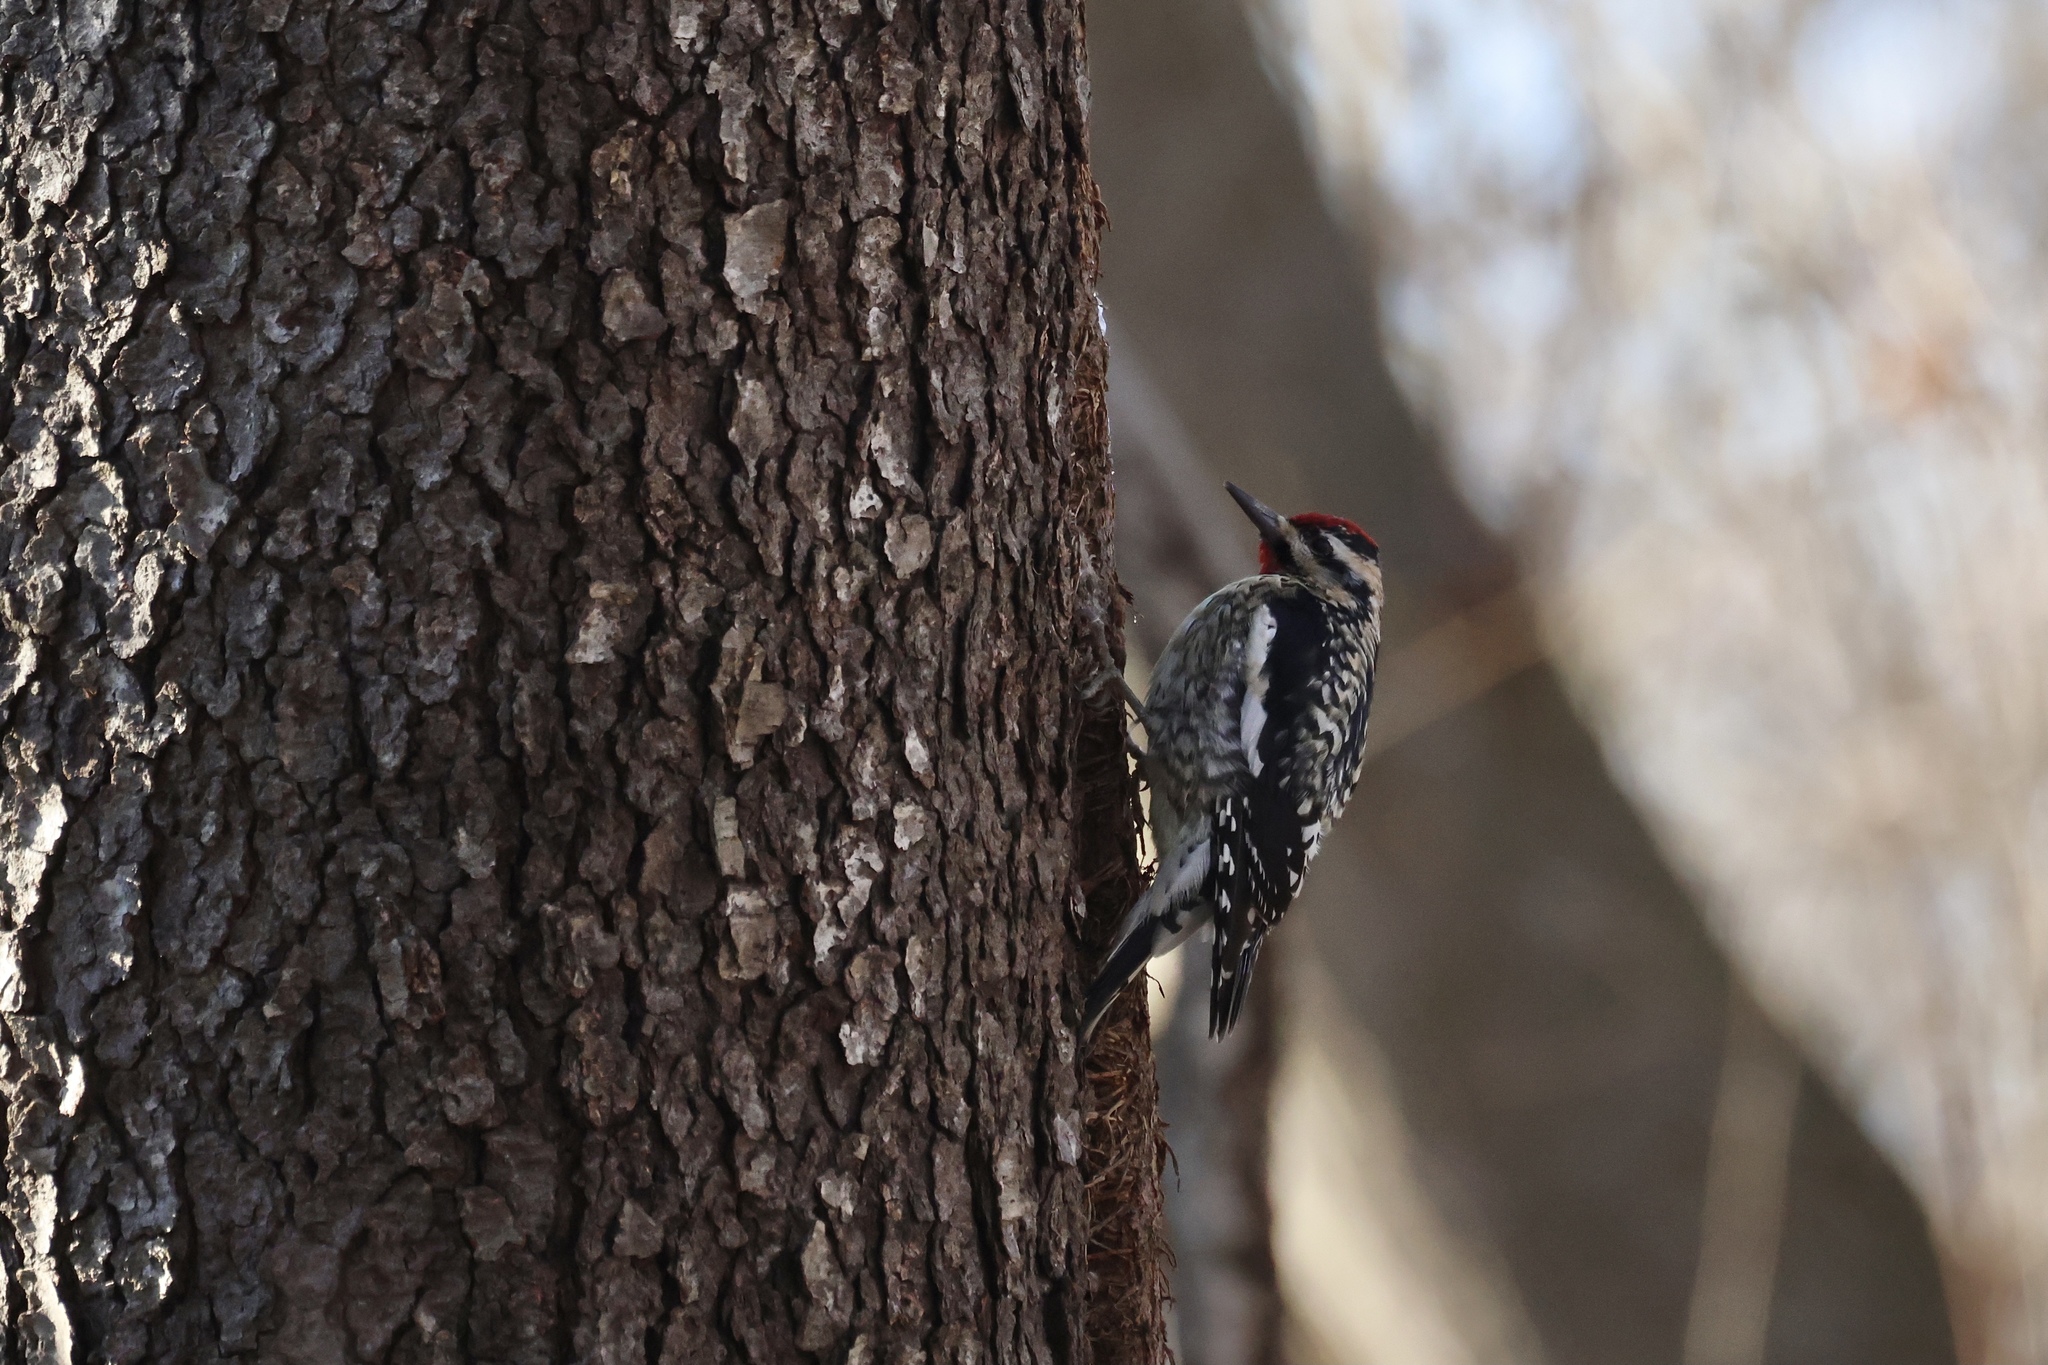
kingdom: Animalia
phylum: Chordata
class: Aves
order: Piciformes
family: Picidae
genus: Sphyrapicus
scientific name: Sphyrapicus varius
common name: Yellow-bellied sapsucker
